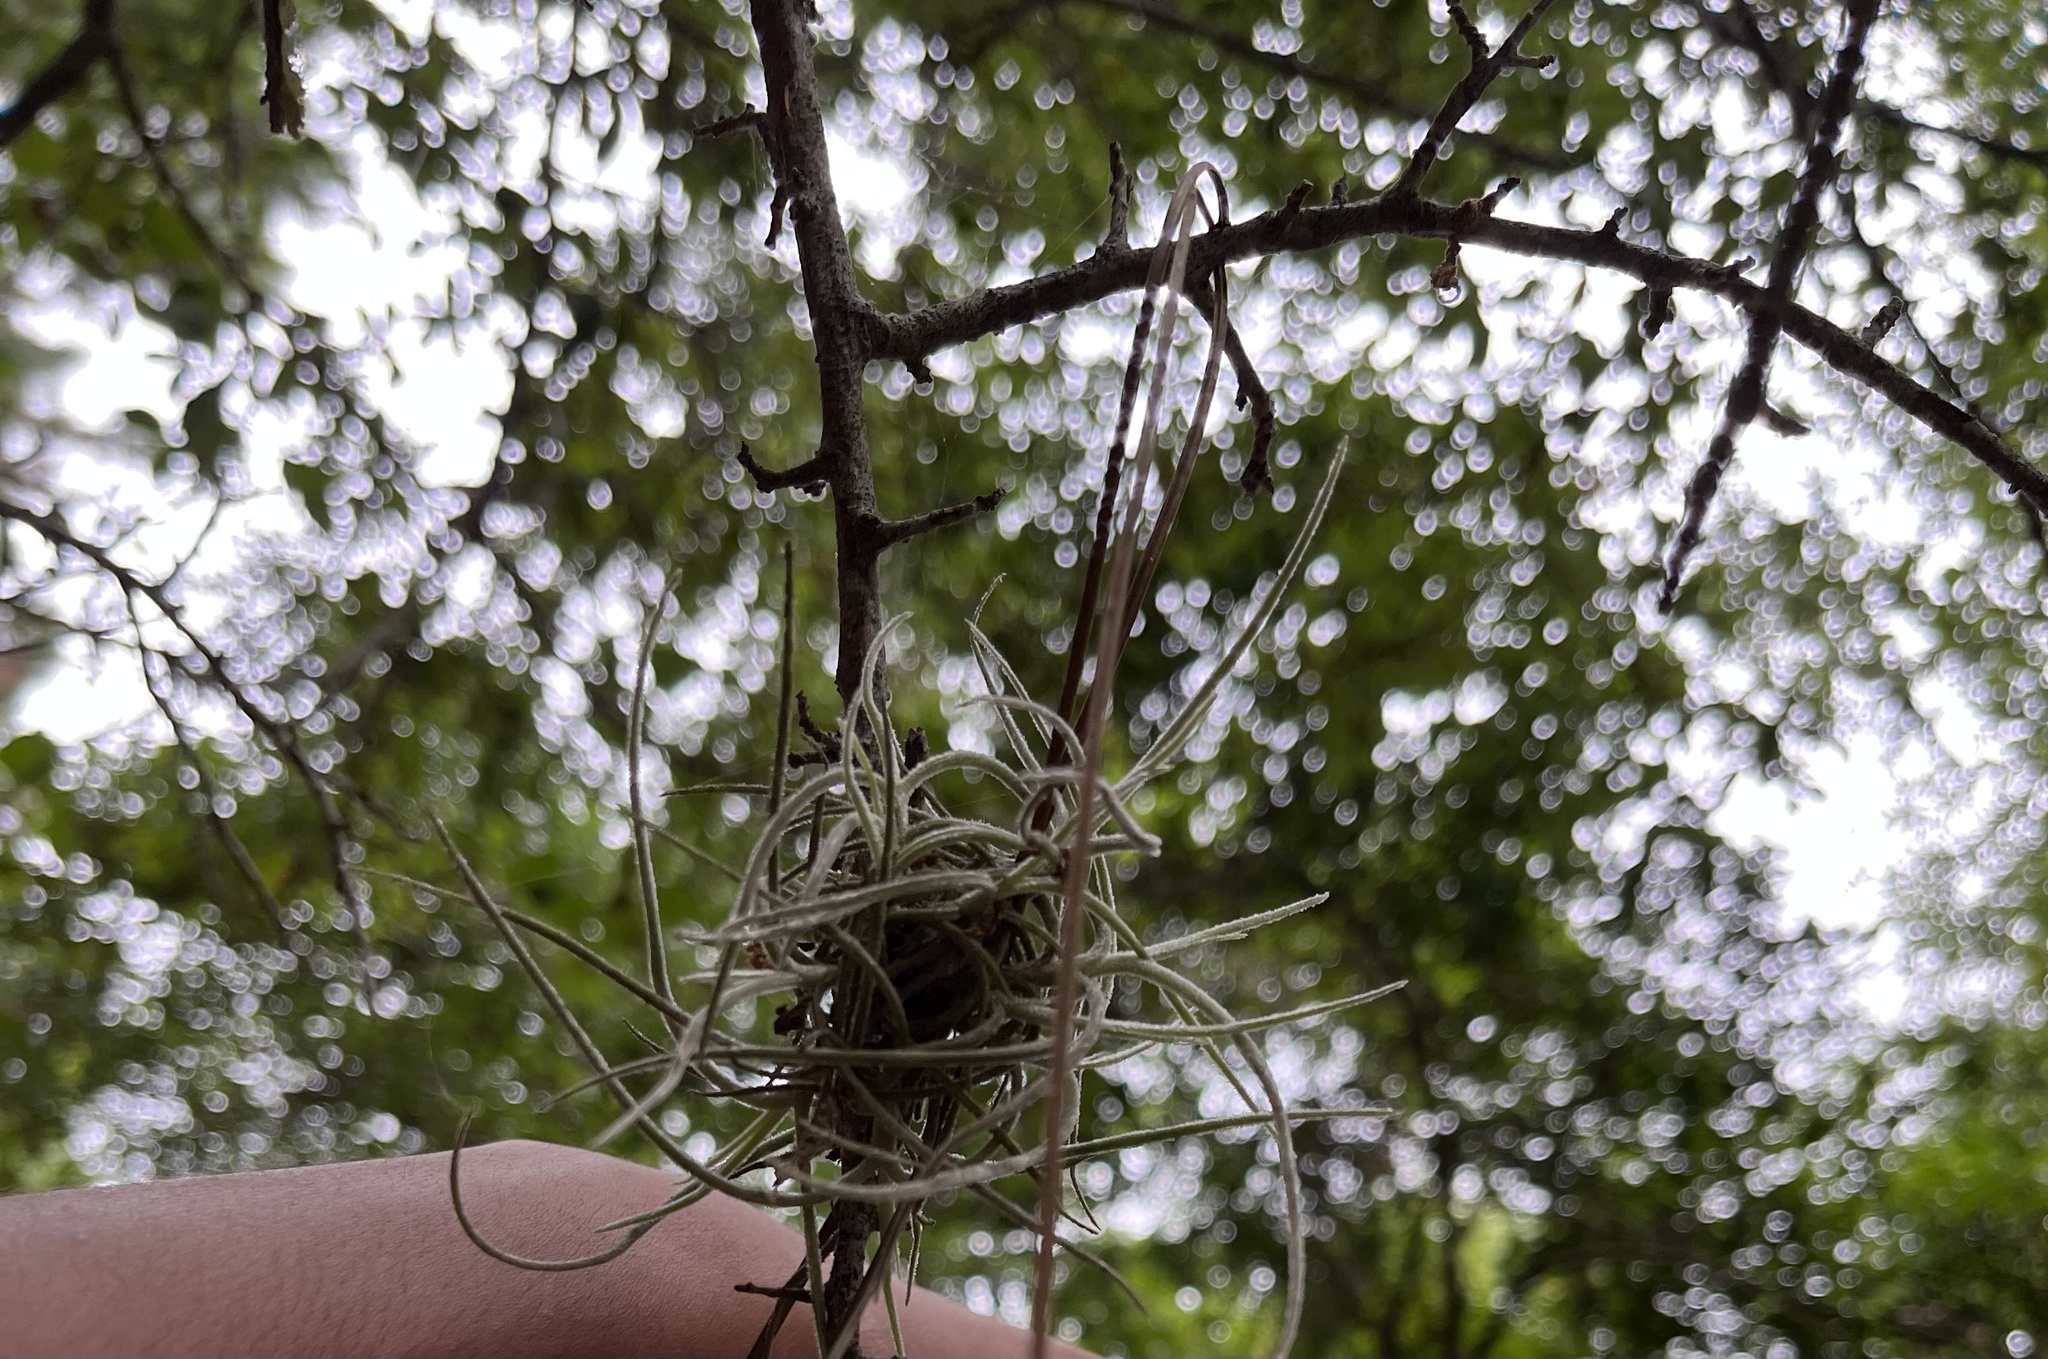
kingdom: Plantae
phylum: Tracheophyta
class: Liliopsida
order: Poales
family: Bromeliaceae
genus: Tillandsia
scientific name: Tillandsia recurvata
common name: Small ballmoss
